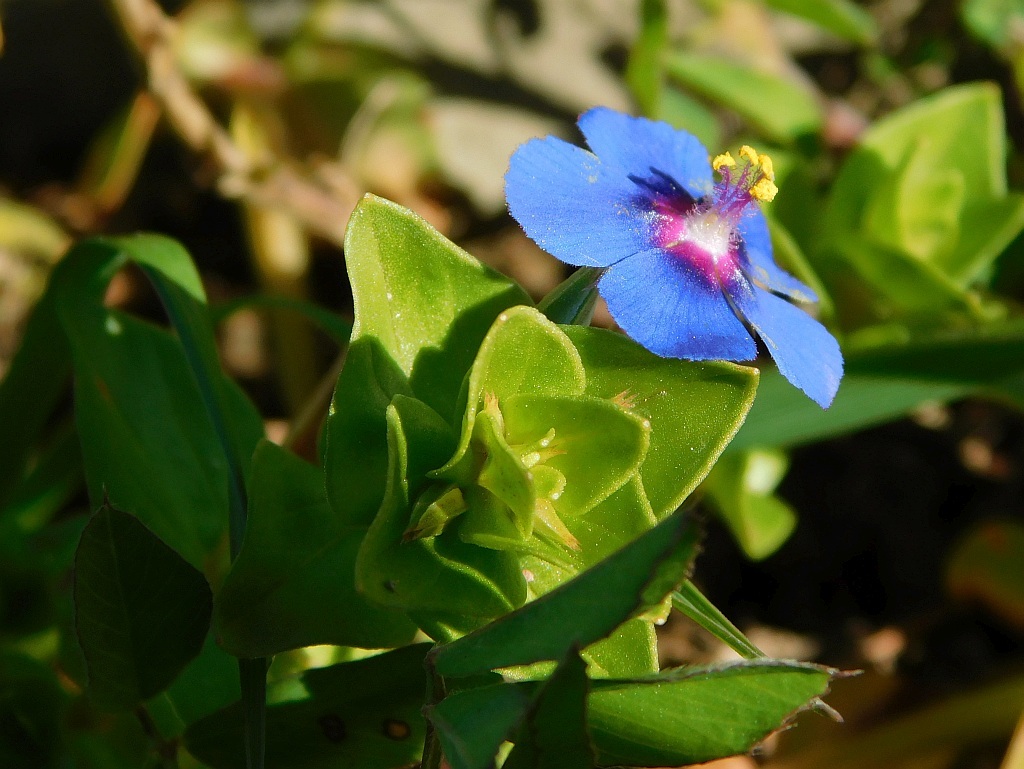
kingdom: Plantae
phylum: Tracheophyta
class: Magnoliopsida
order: Ericales
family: Primulaceae
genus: Lysimachia
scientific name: Lysimachia loeflingii
